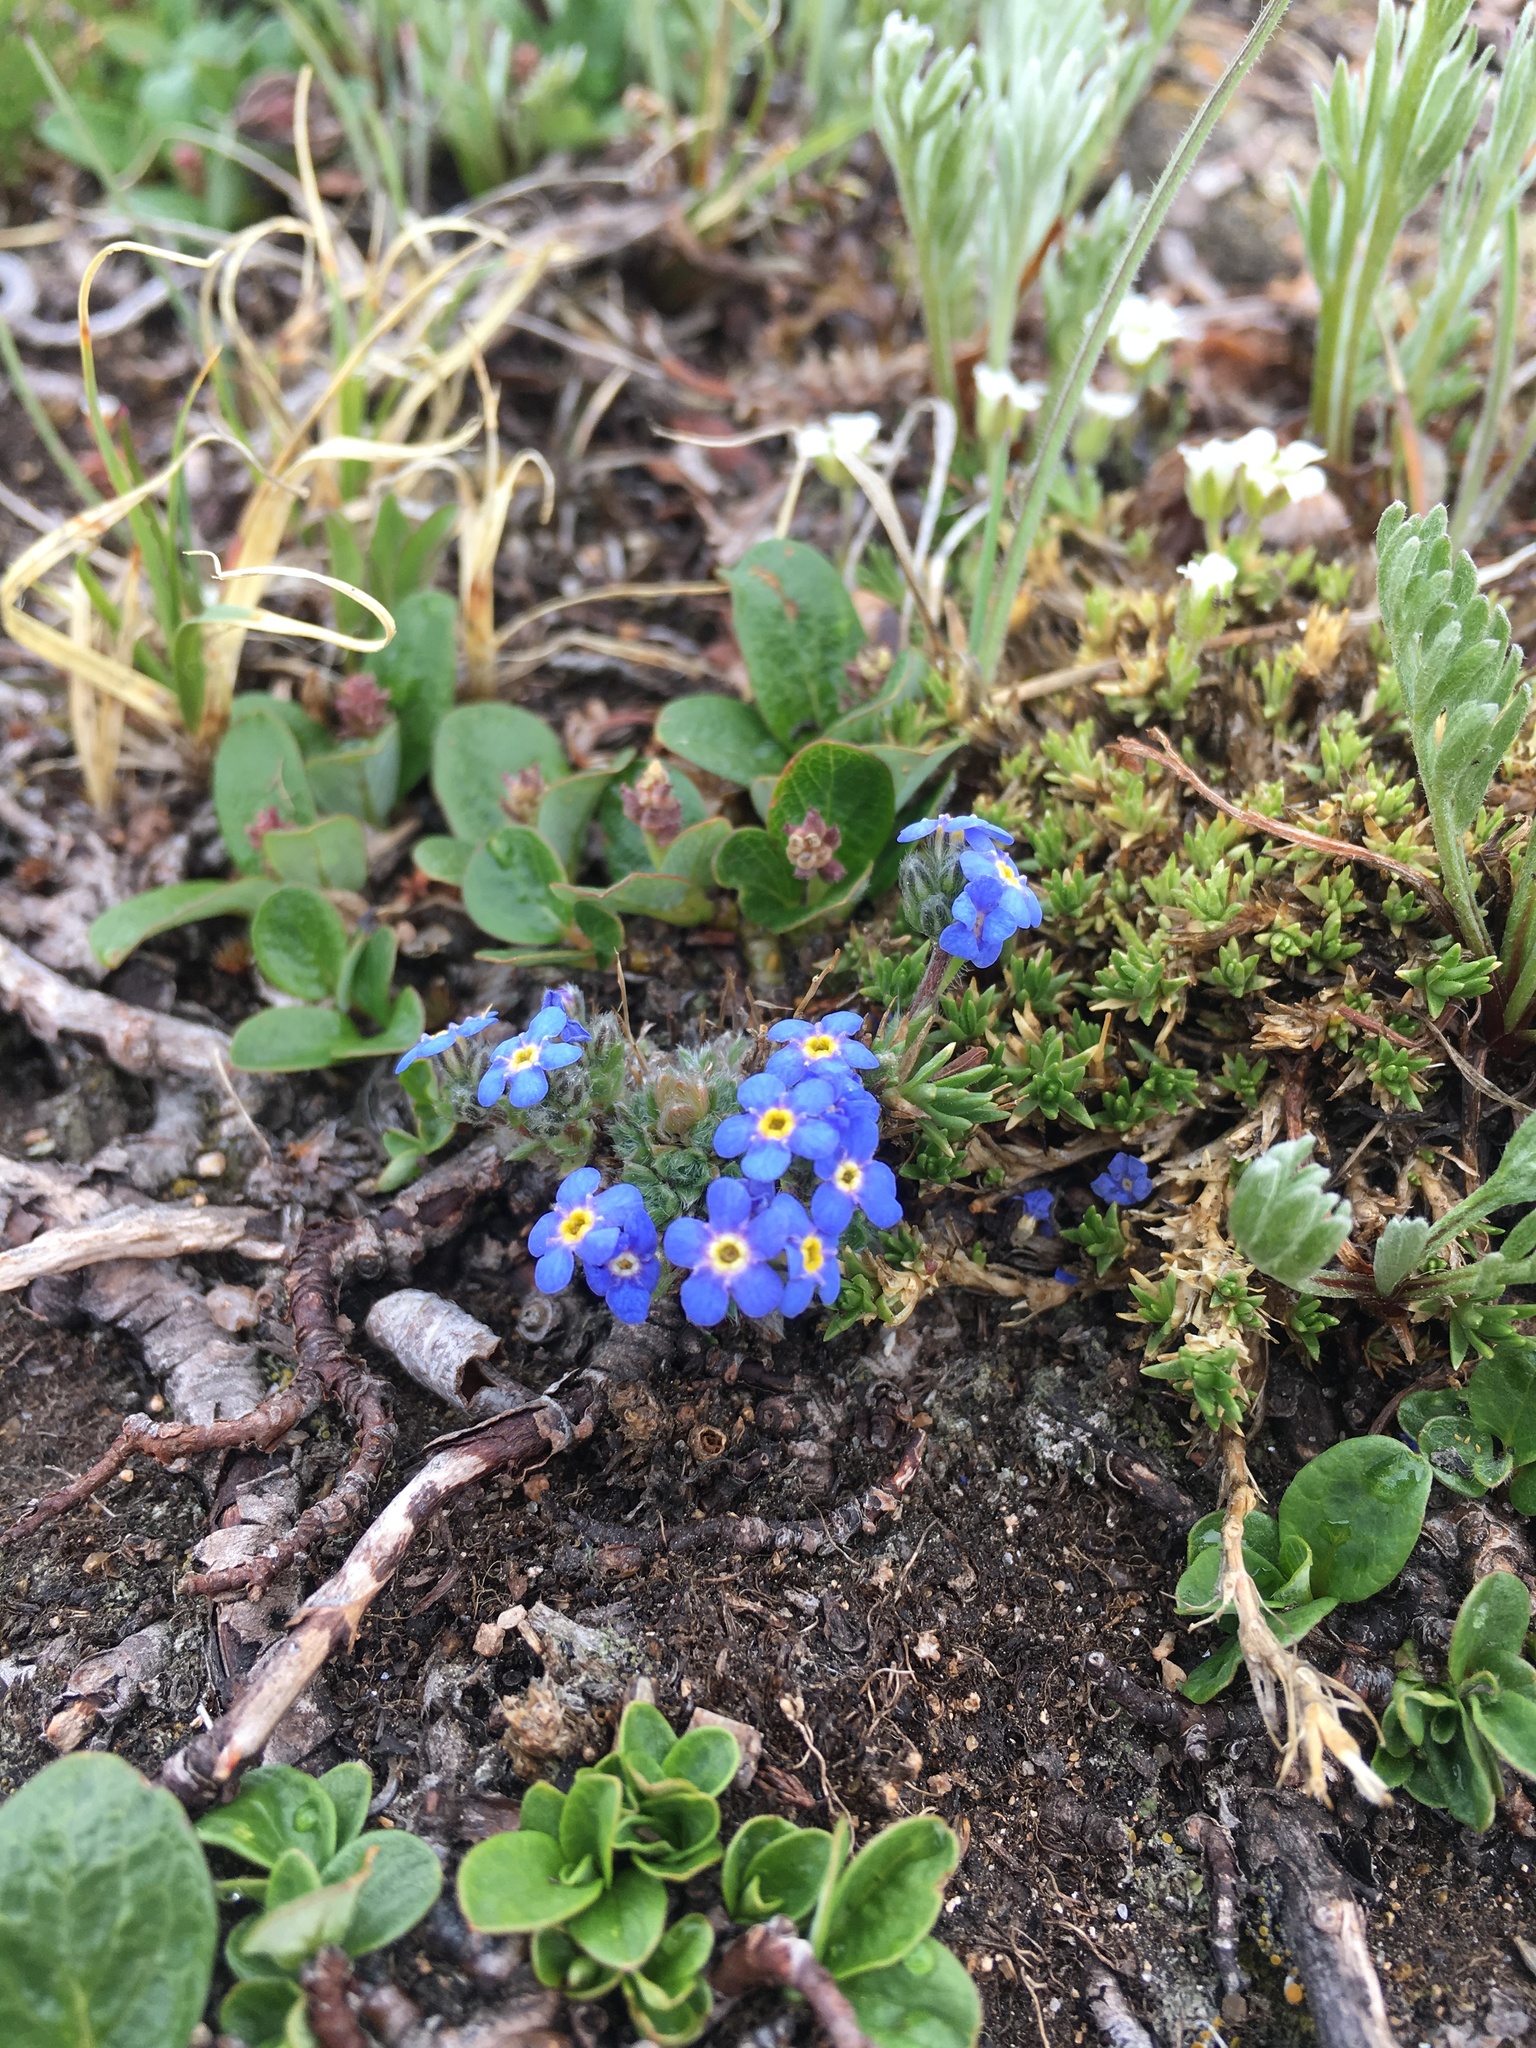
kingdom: Plantae
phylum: Tracheophyta
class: Magnoliopsida
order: Boraginales
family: Boraginaceae
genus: Eritrichium
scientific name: Eritrichium argenteum
